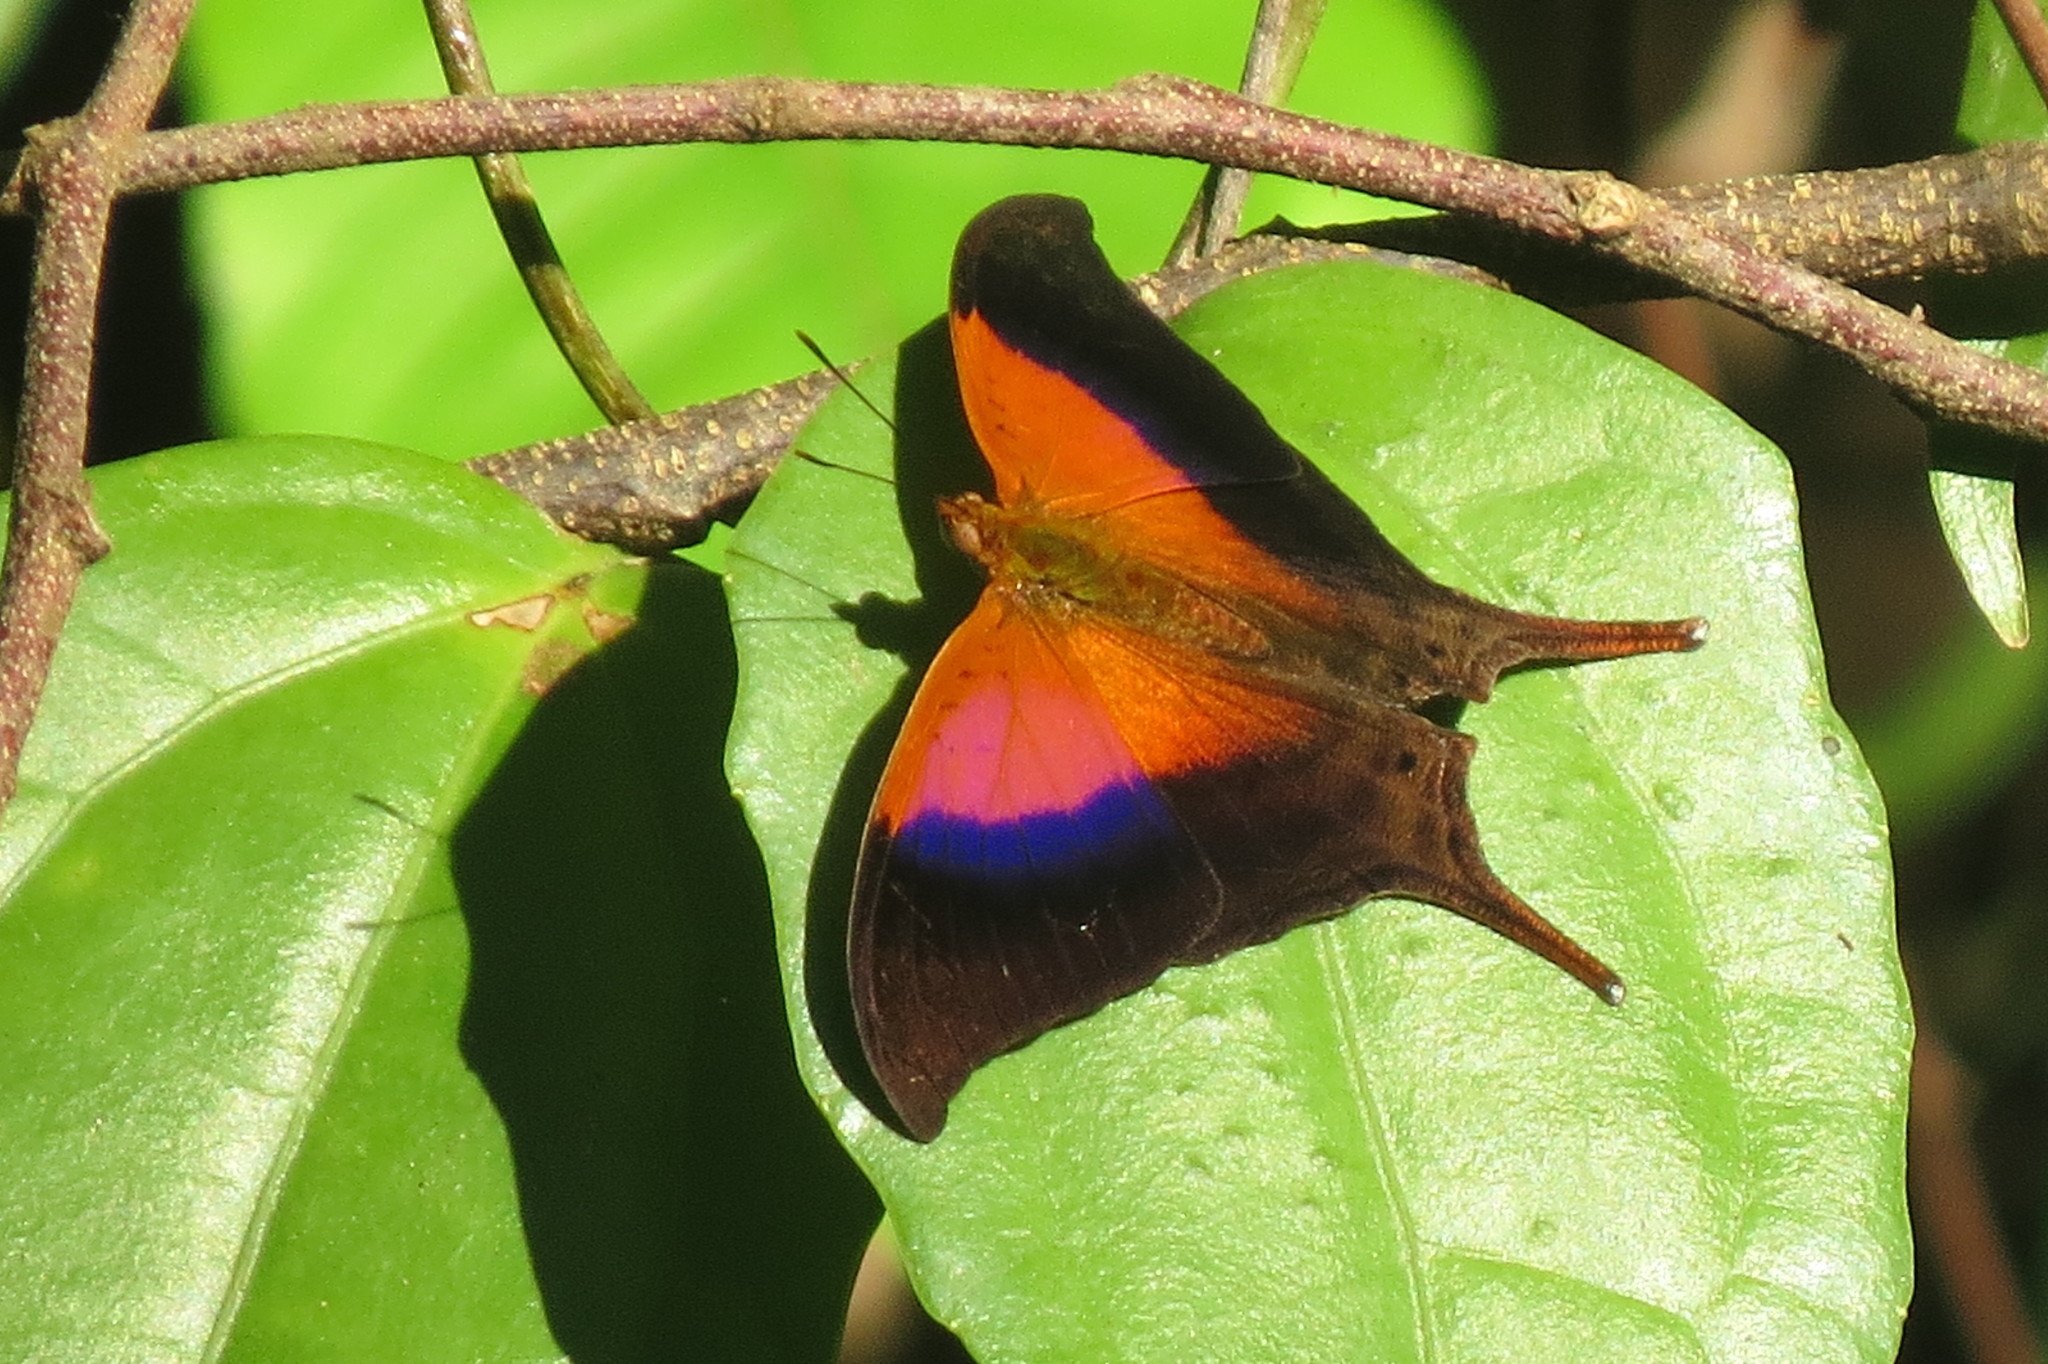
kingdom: Animalia
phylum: Arthropoda
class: Insecta
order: Lepidoptera
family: Nymphalidae
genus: Marpesia
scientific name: Marpesia furcula
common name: Sunset daggerwing
